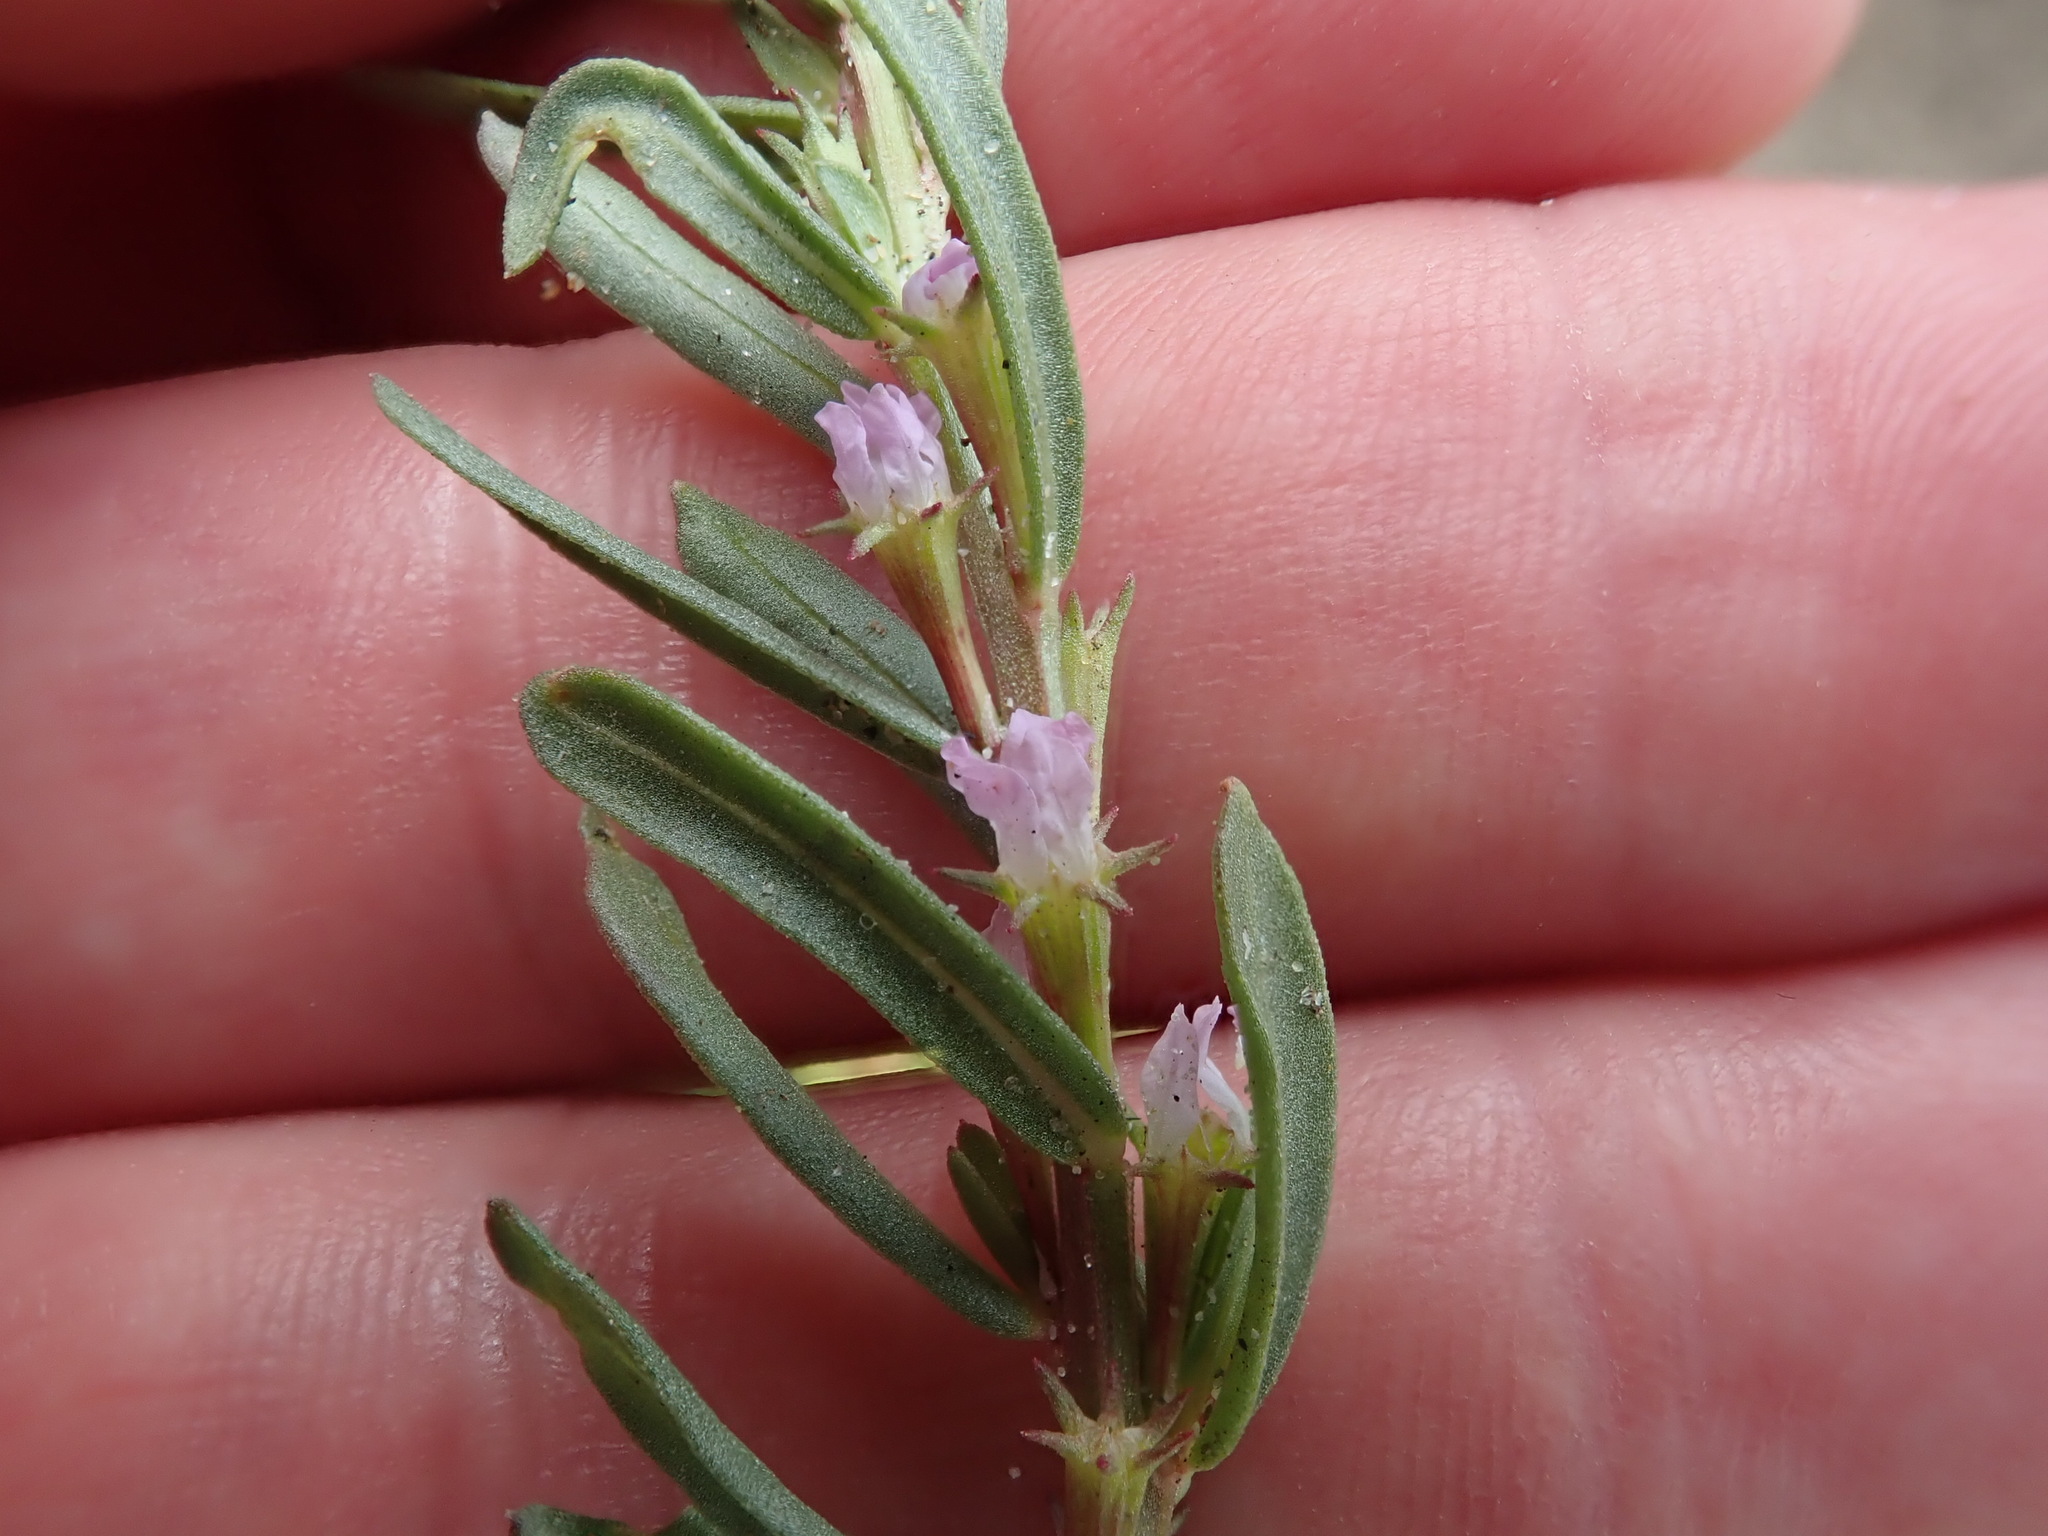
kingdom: Plantae
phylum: Tracheophyta
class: Magnoliopsida
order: Myrtales
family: Lythraceae
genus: Lythrum
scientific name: Lythrum hyssopifolia
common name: Grass-poly
